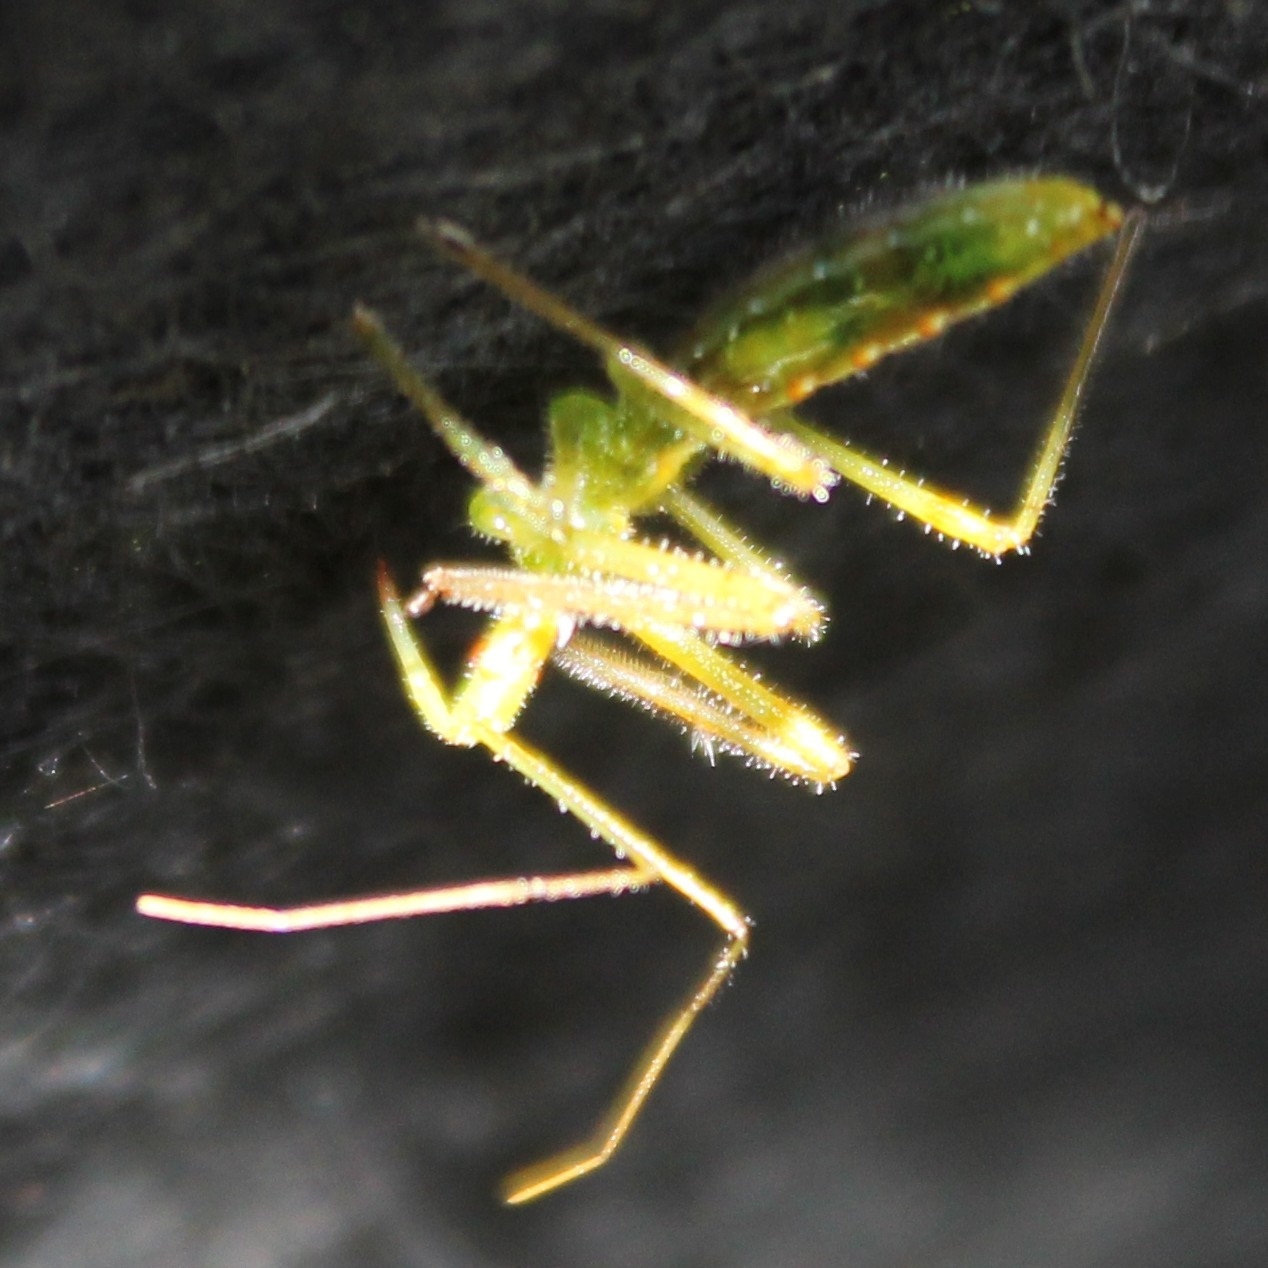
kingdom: Animalia
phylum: Arthropoda
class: Insecta
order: Hemiptera
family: Reduviidae
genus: Zelus
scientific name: Zelus luridus
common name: Pale green assassin bug
